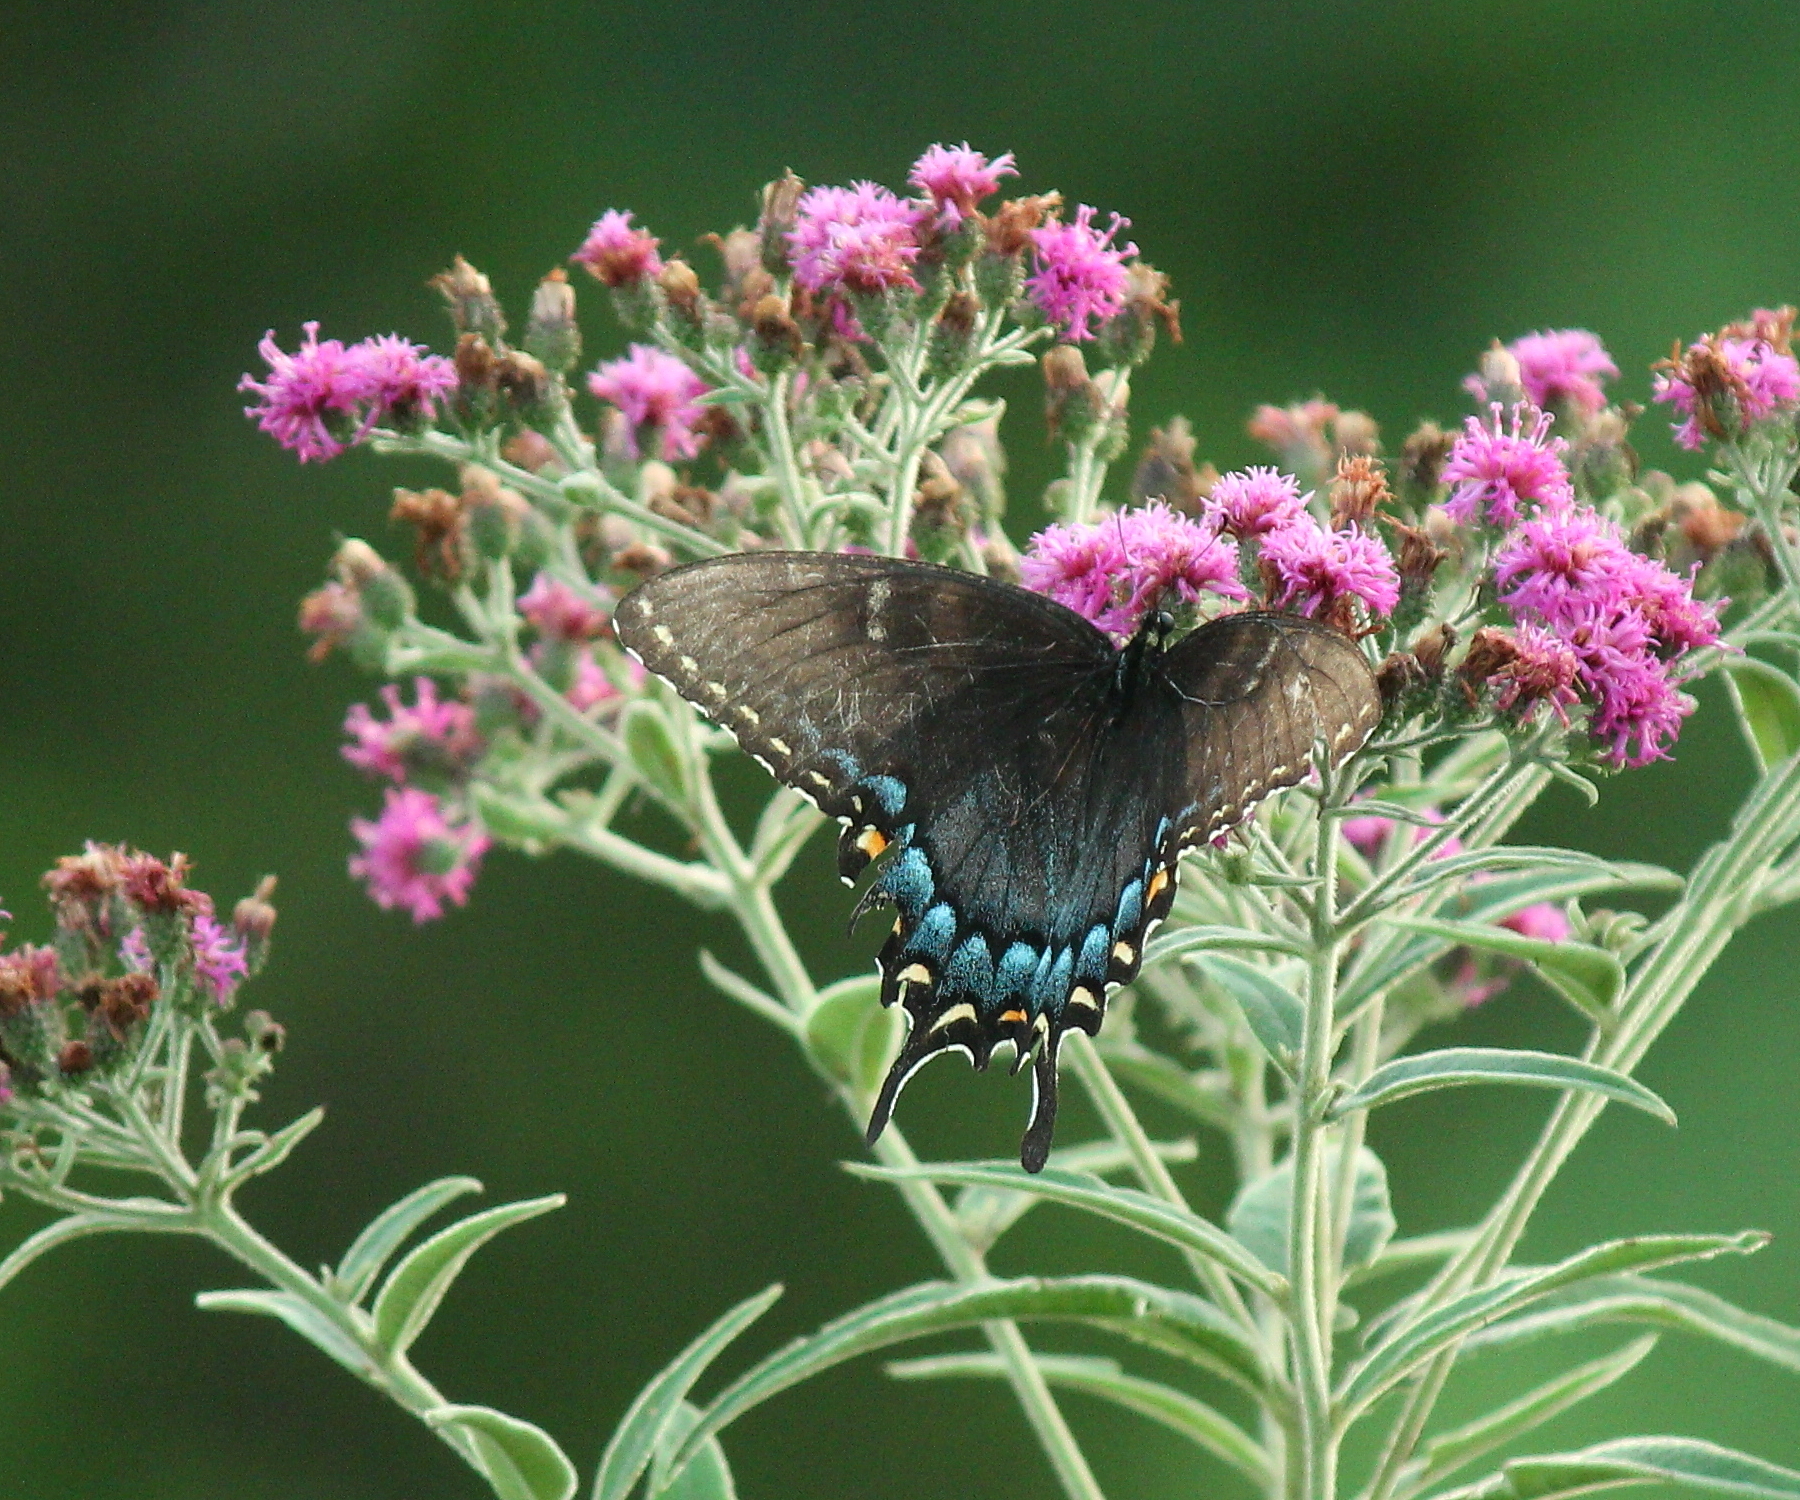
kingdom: Animalia
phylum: Arthropoda
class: Insecta
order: Lepidoptera
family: Papilionidae
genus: Papilio
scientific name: Papilio glaucus
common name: Tiger swallowtail
